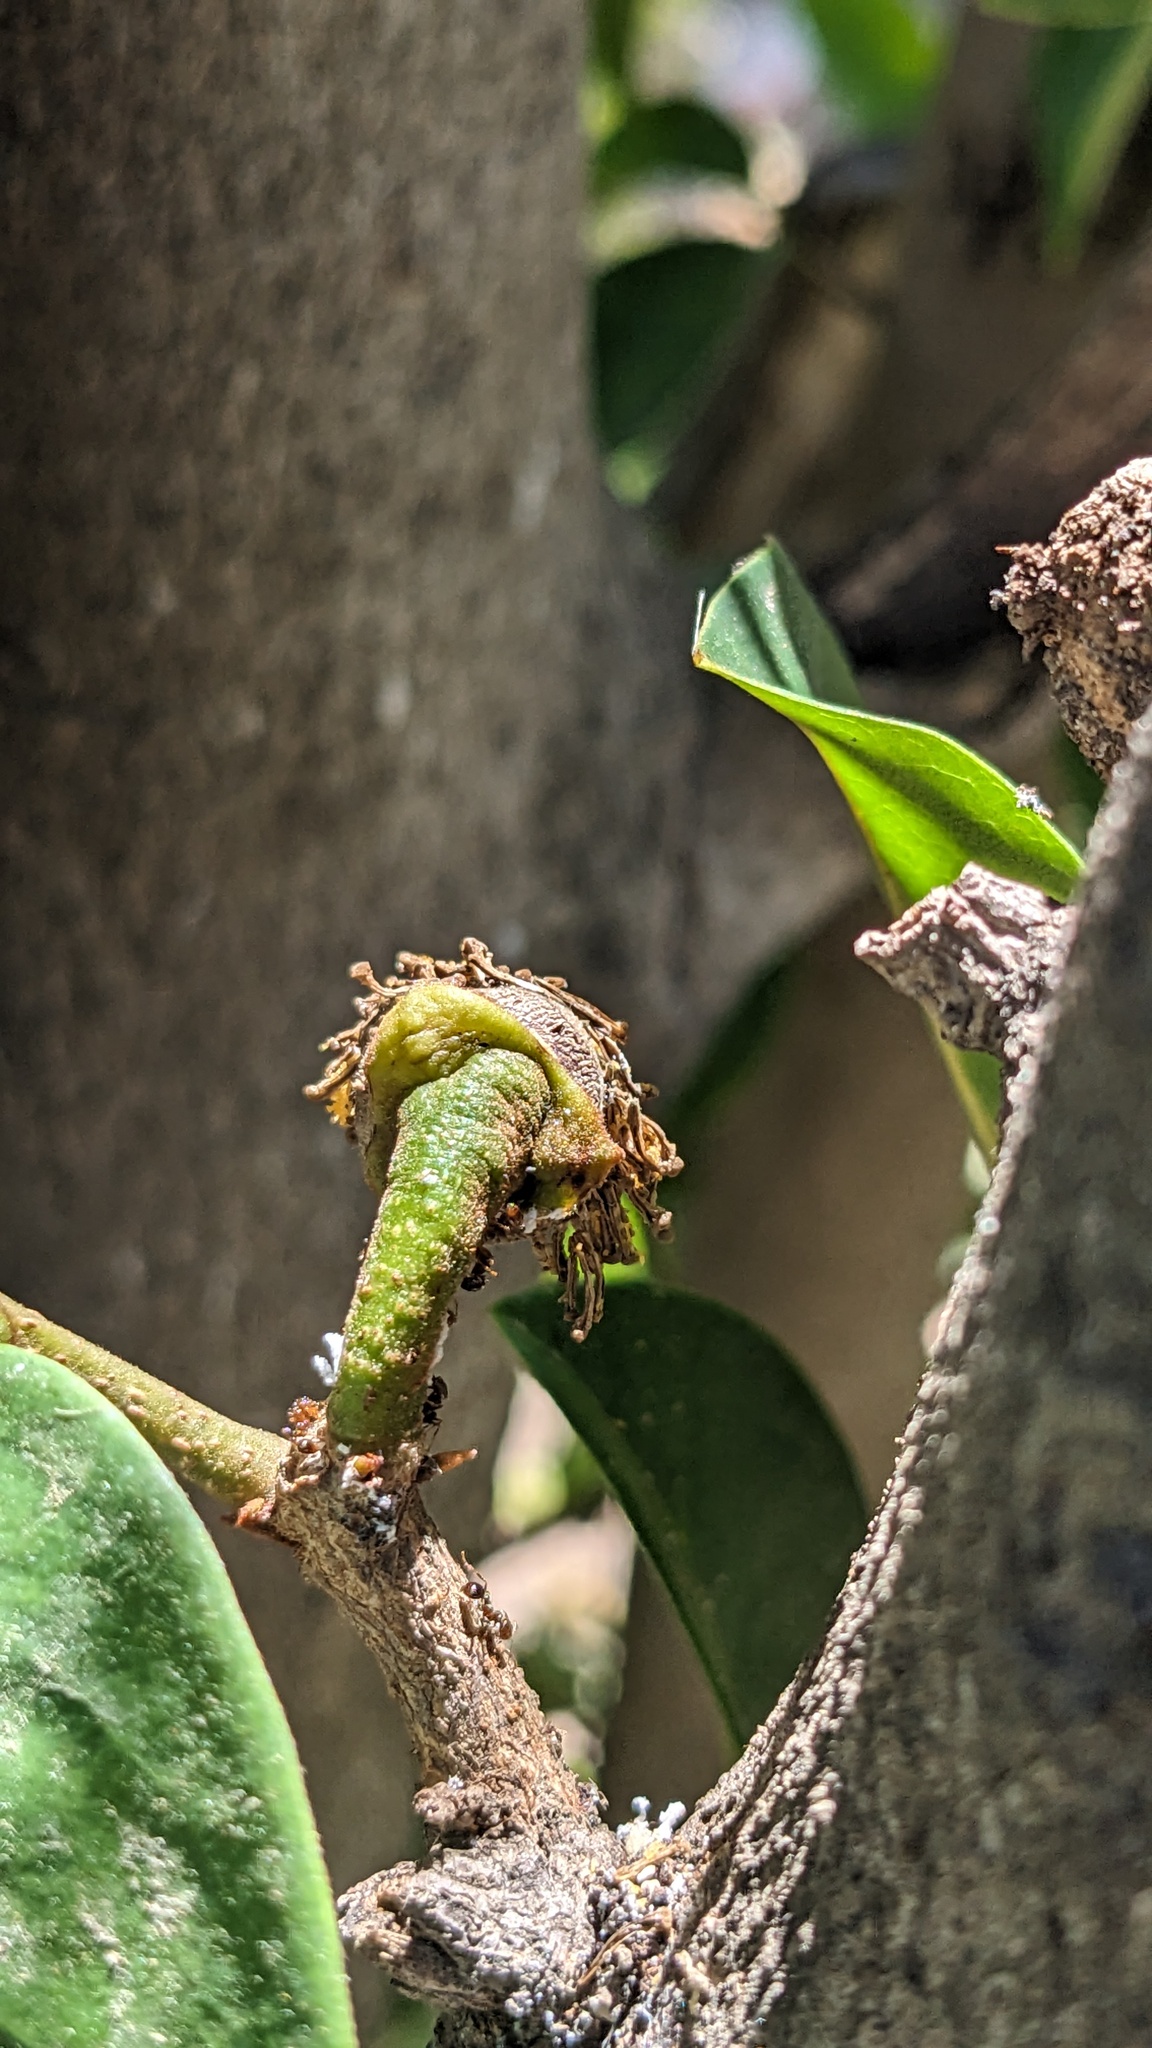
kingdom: Plantae
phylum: Tracheophyta
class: Magnoliopsida
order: Magnoliales
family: Annonaceae
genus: Annona
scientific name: Annona muricata
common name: Soursop
